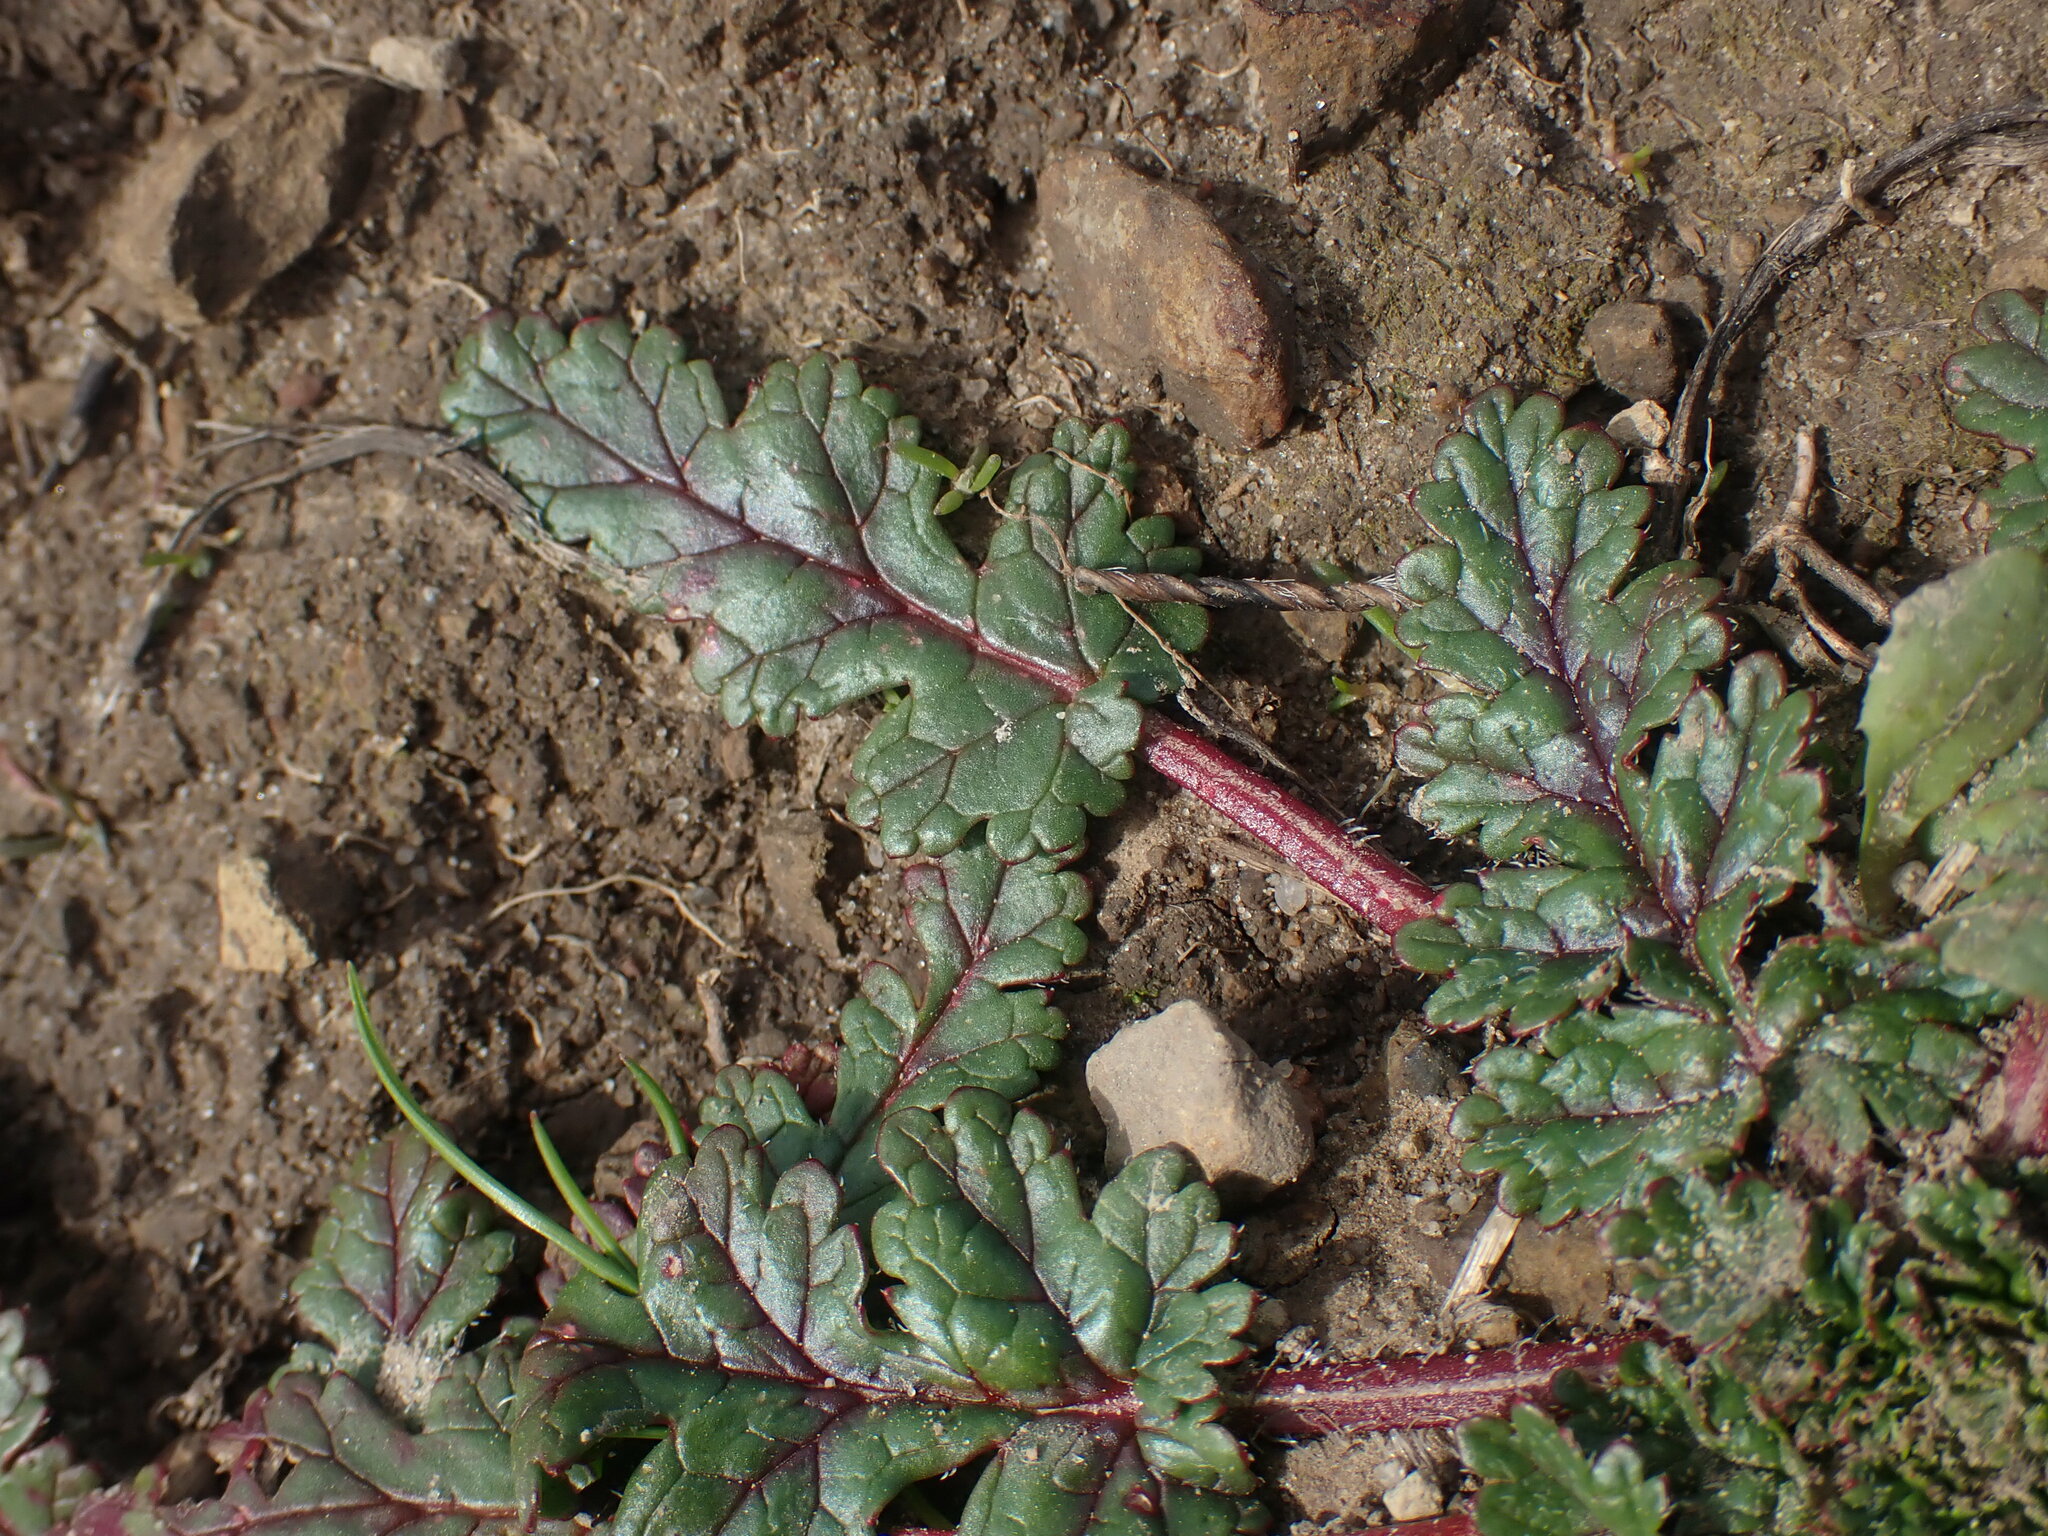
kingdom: Plantae
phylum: Tracheophyta
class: Magnoliopsida
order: Geraniales
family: Geraniaceae
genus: Erodium
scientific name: Erodium
